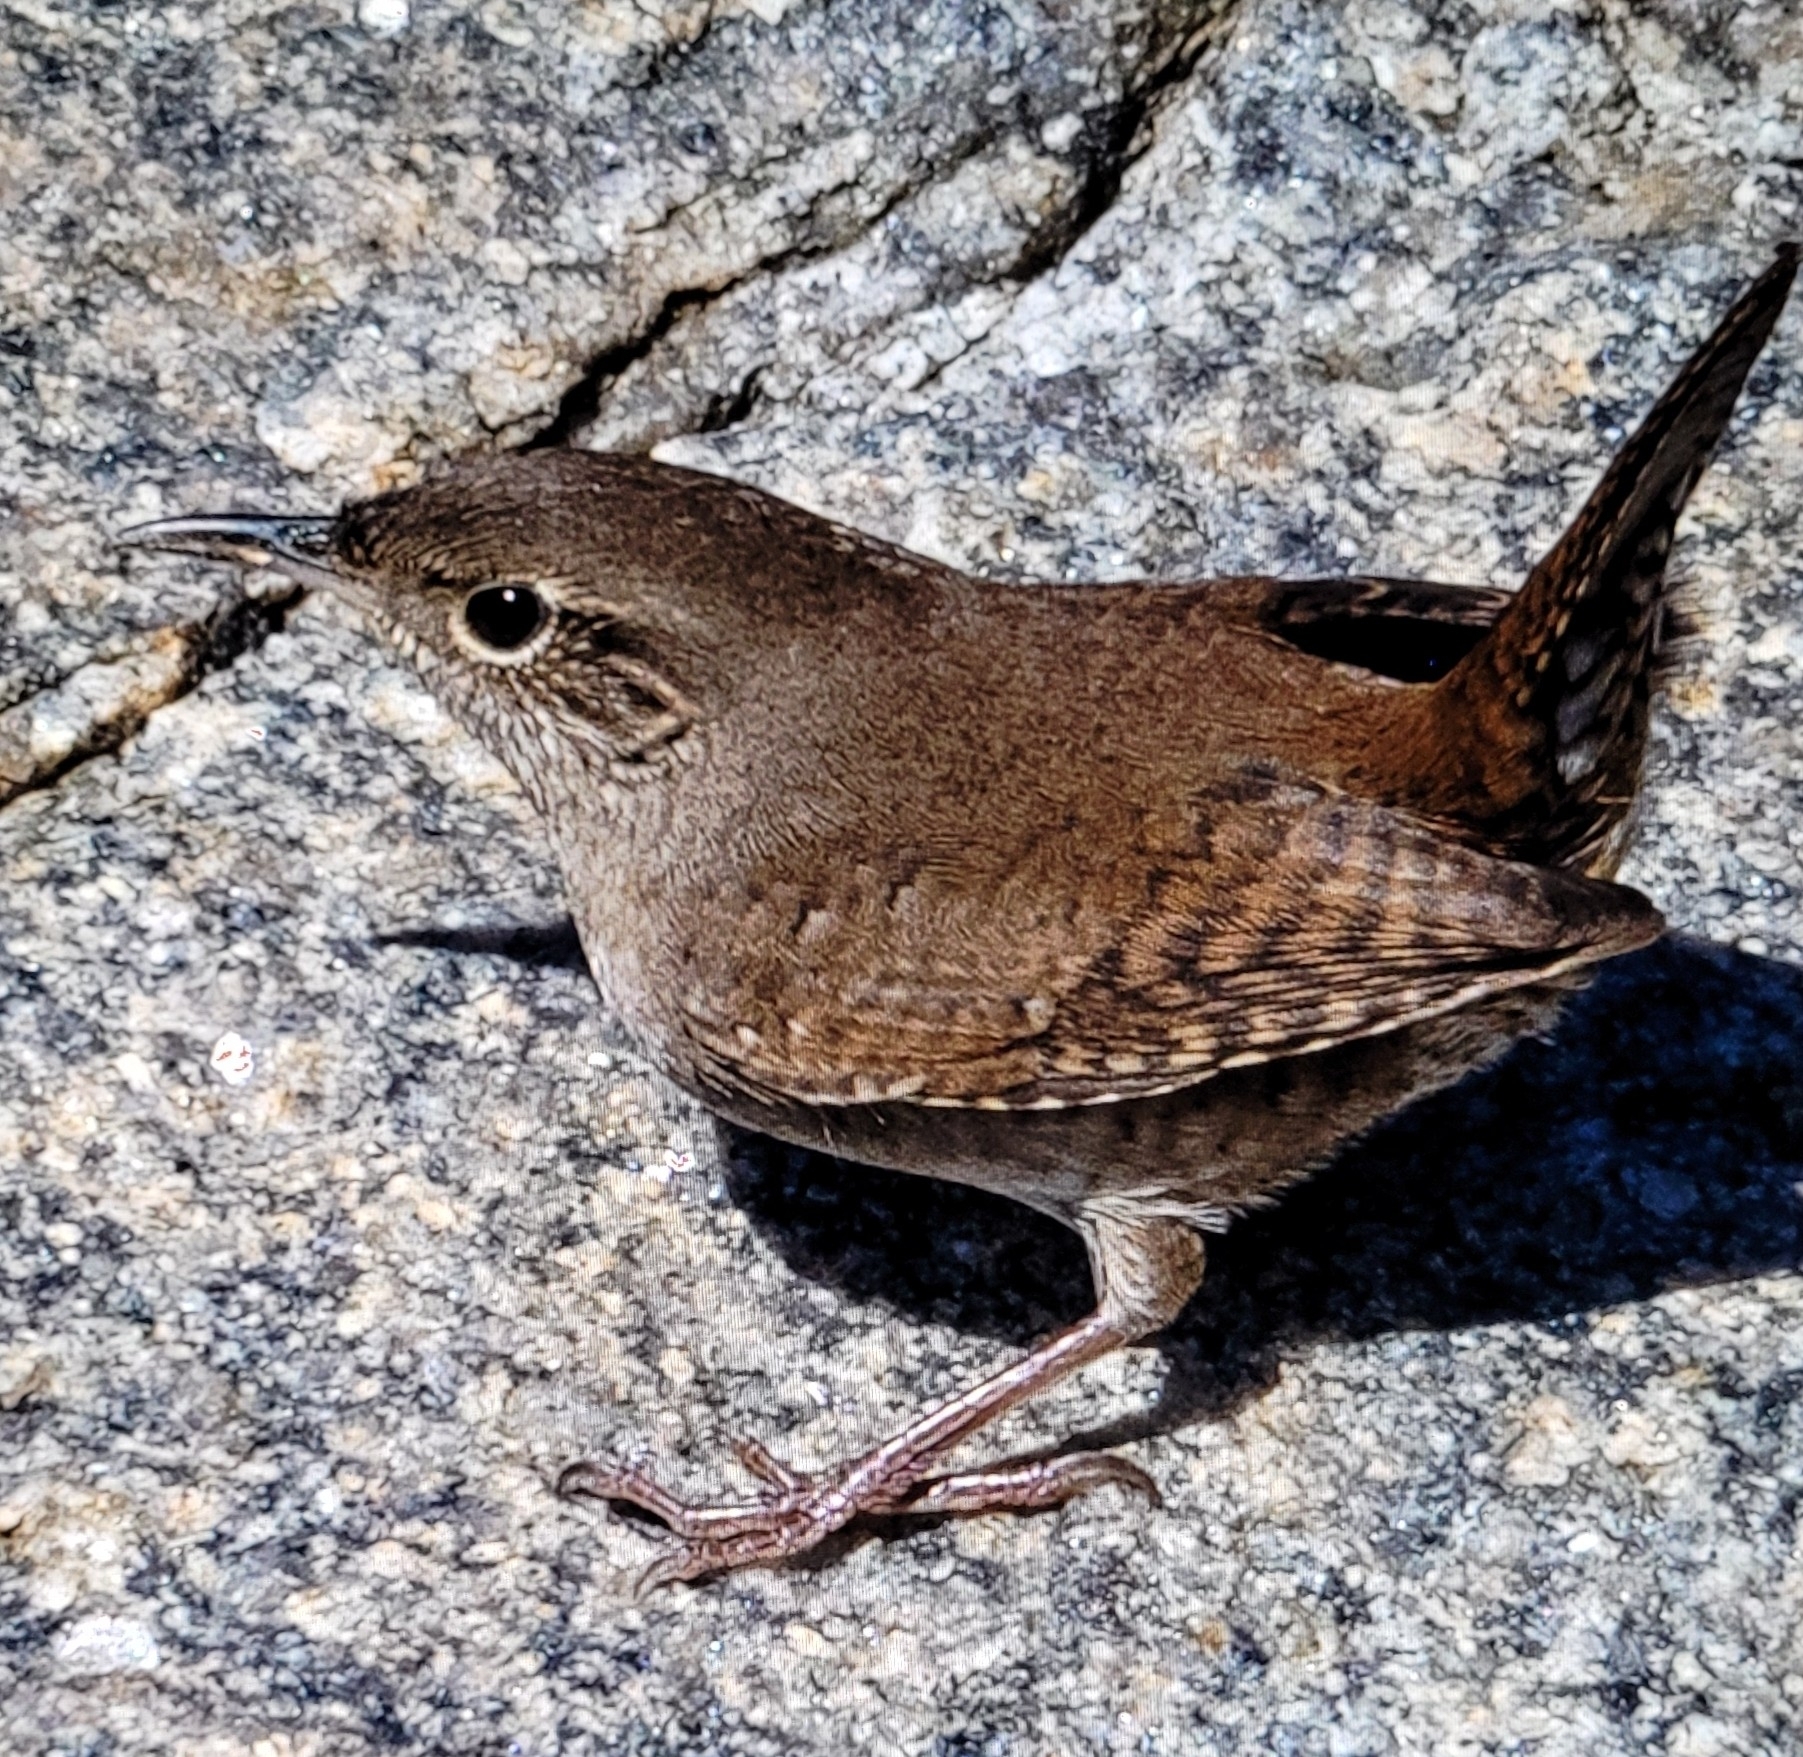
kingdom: Animalia
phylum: Chordata
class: Aves
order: Passeriformes
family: Troglodytidae
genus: Troglodytes
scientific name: Troglodytes aedon
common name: House wren
